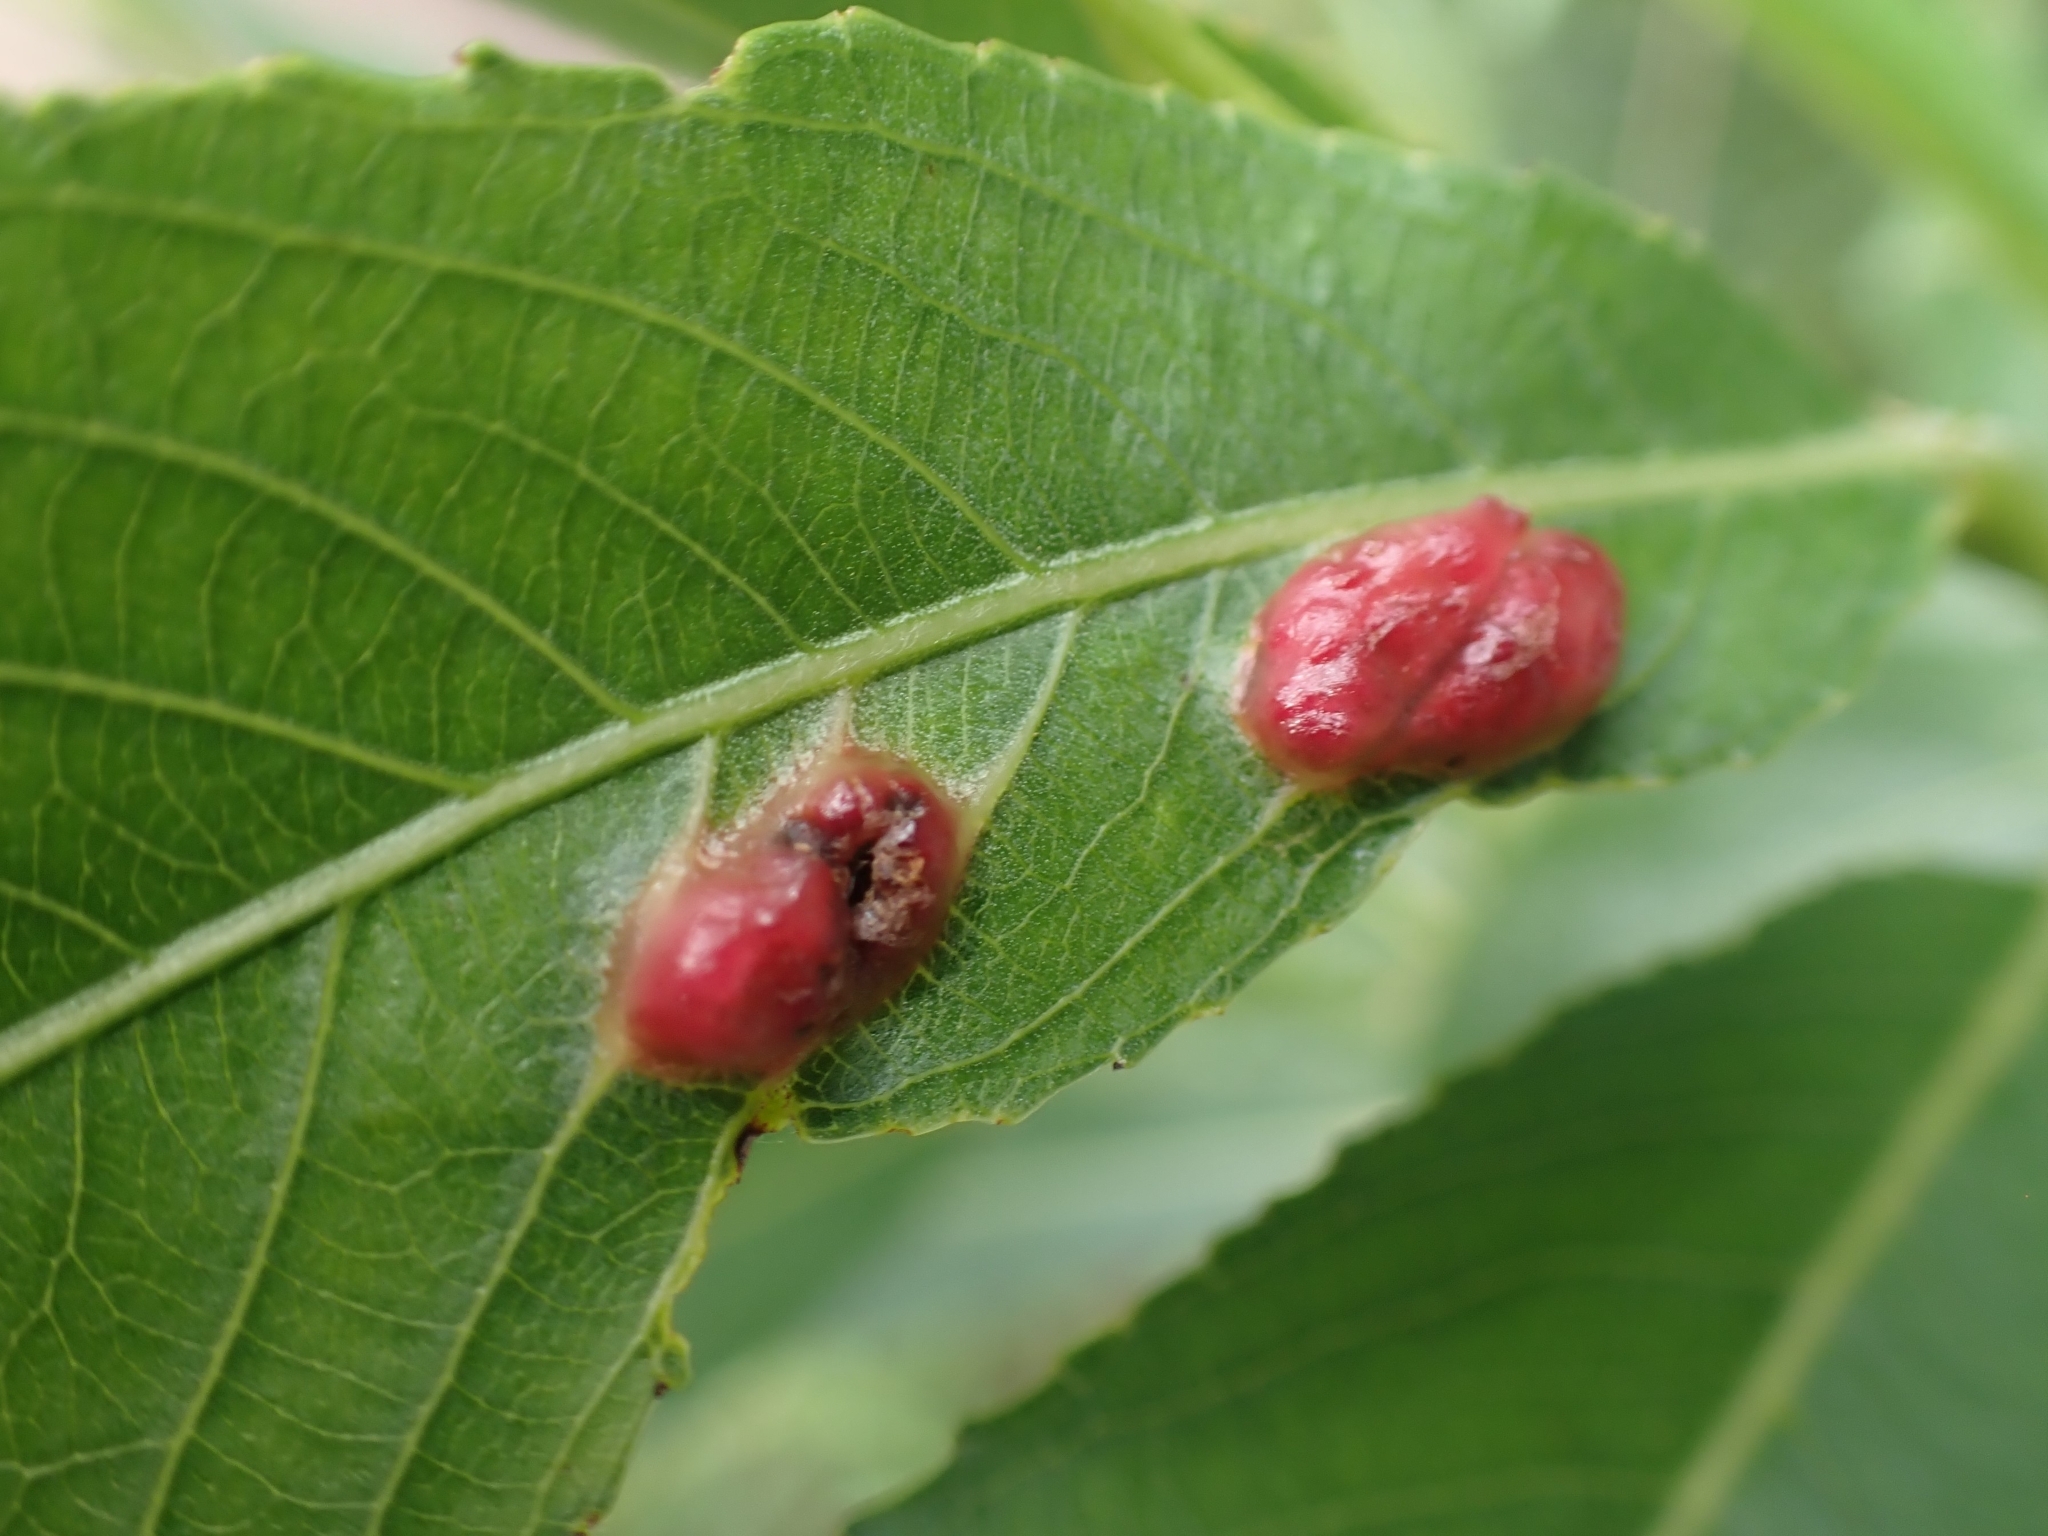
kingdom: Animalia
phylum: Arthropoda
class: Insecta
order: Hymenoptera
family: Tenthredinidae
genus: Pontania
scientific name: Pontania proxima
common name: Common sawfly
